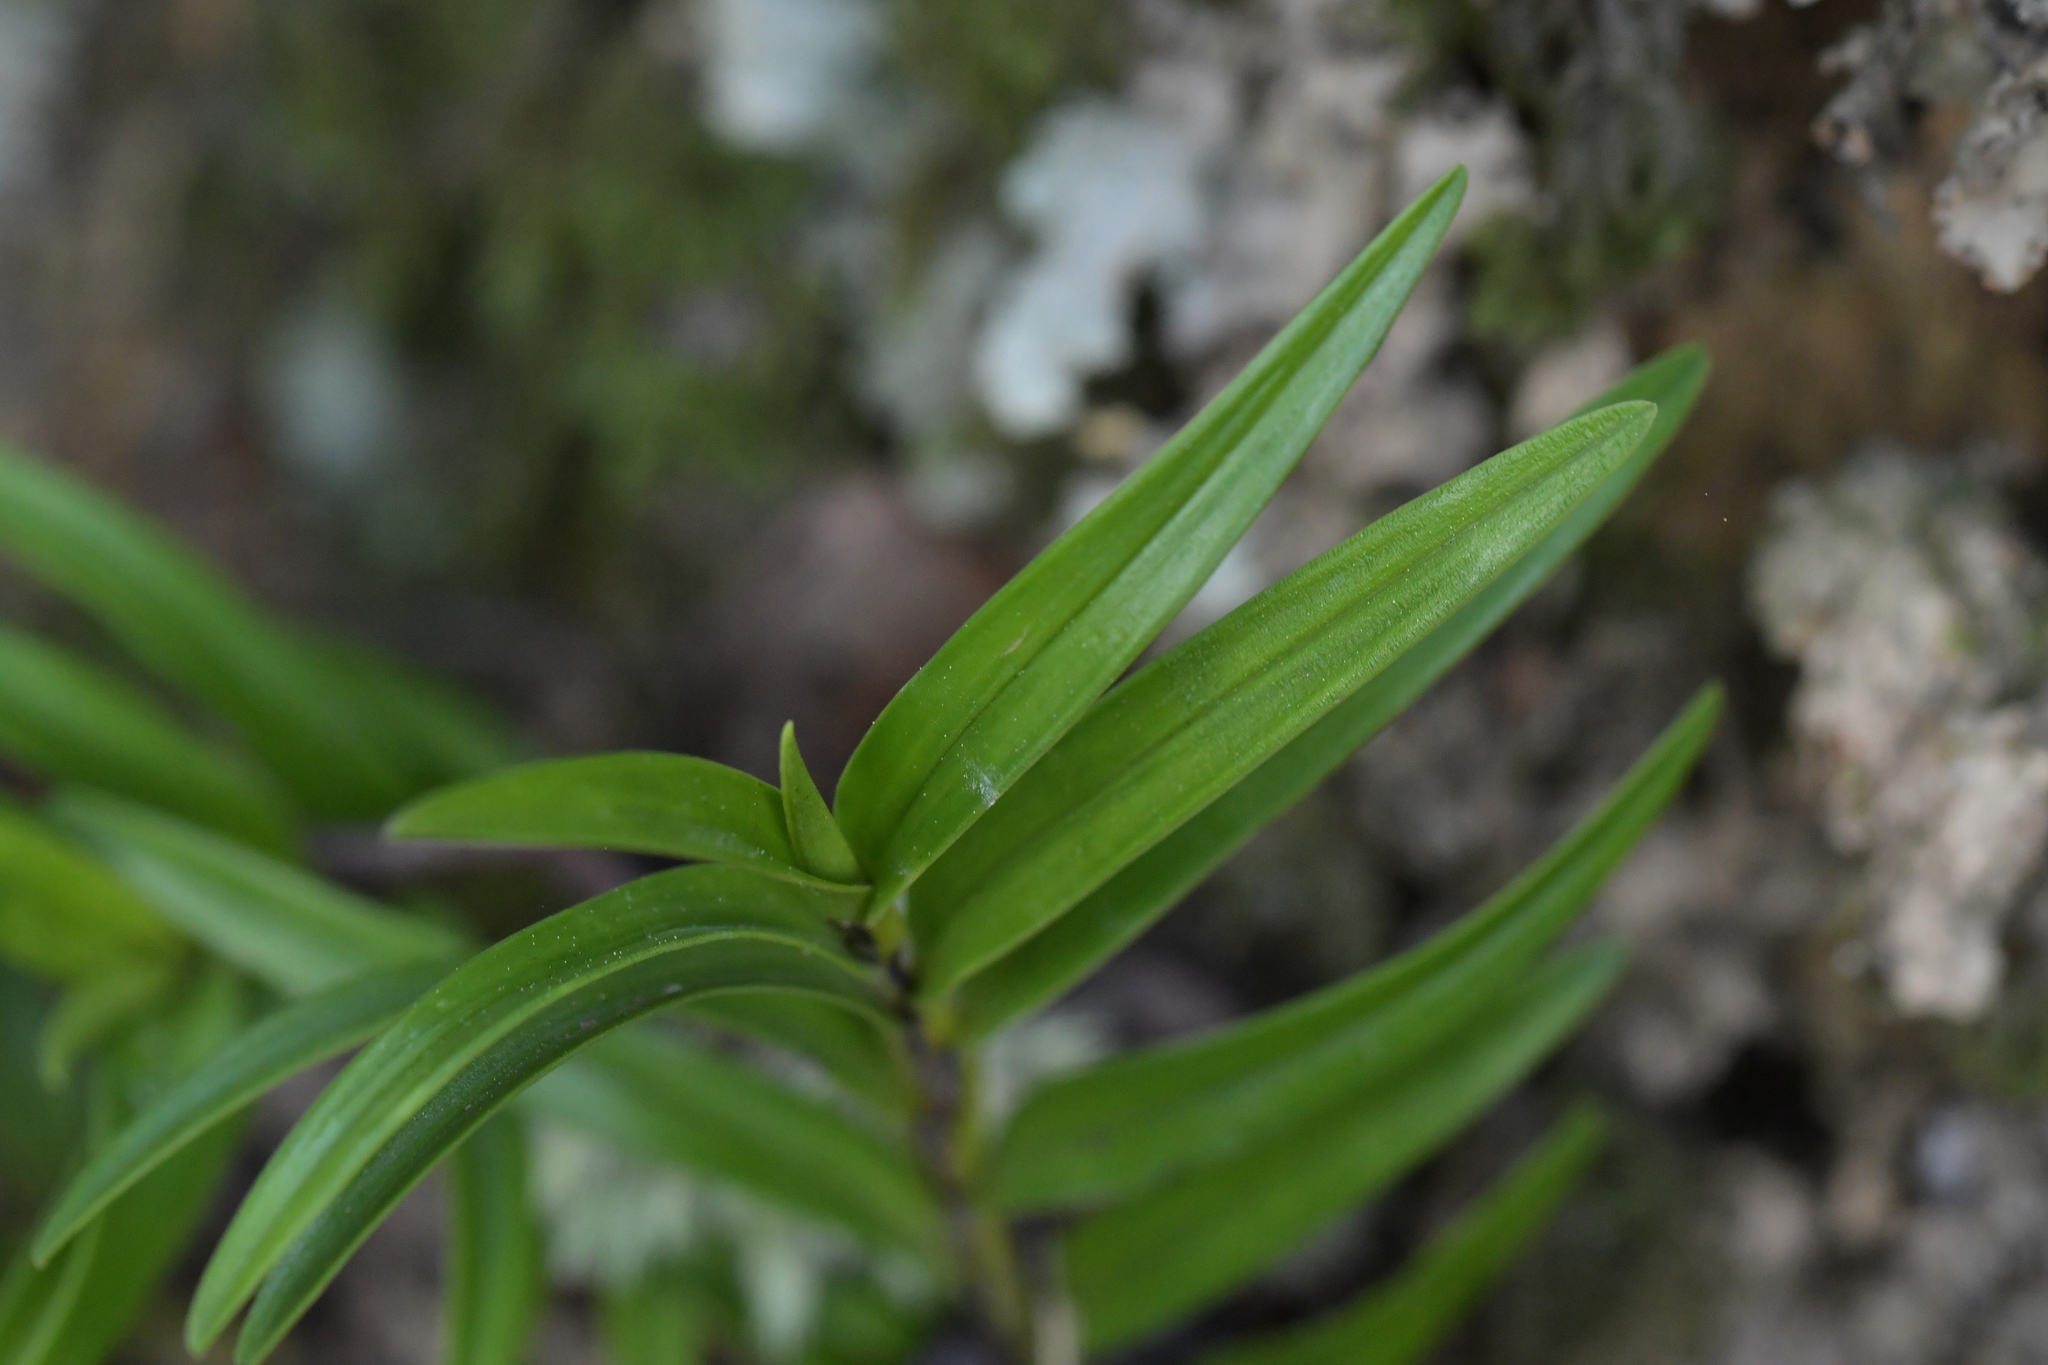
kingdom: Plantae
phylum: Tracheophyta
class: Liliopsida
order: Asparagales
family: Orchidaceae
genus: Earina
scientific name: Earina autumnalis
